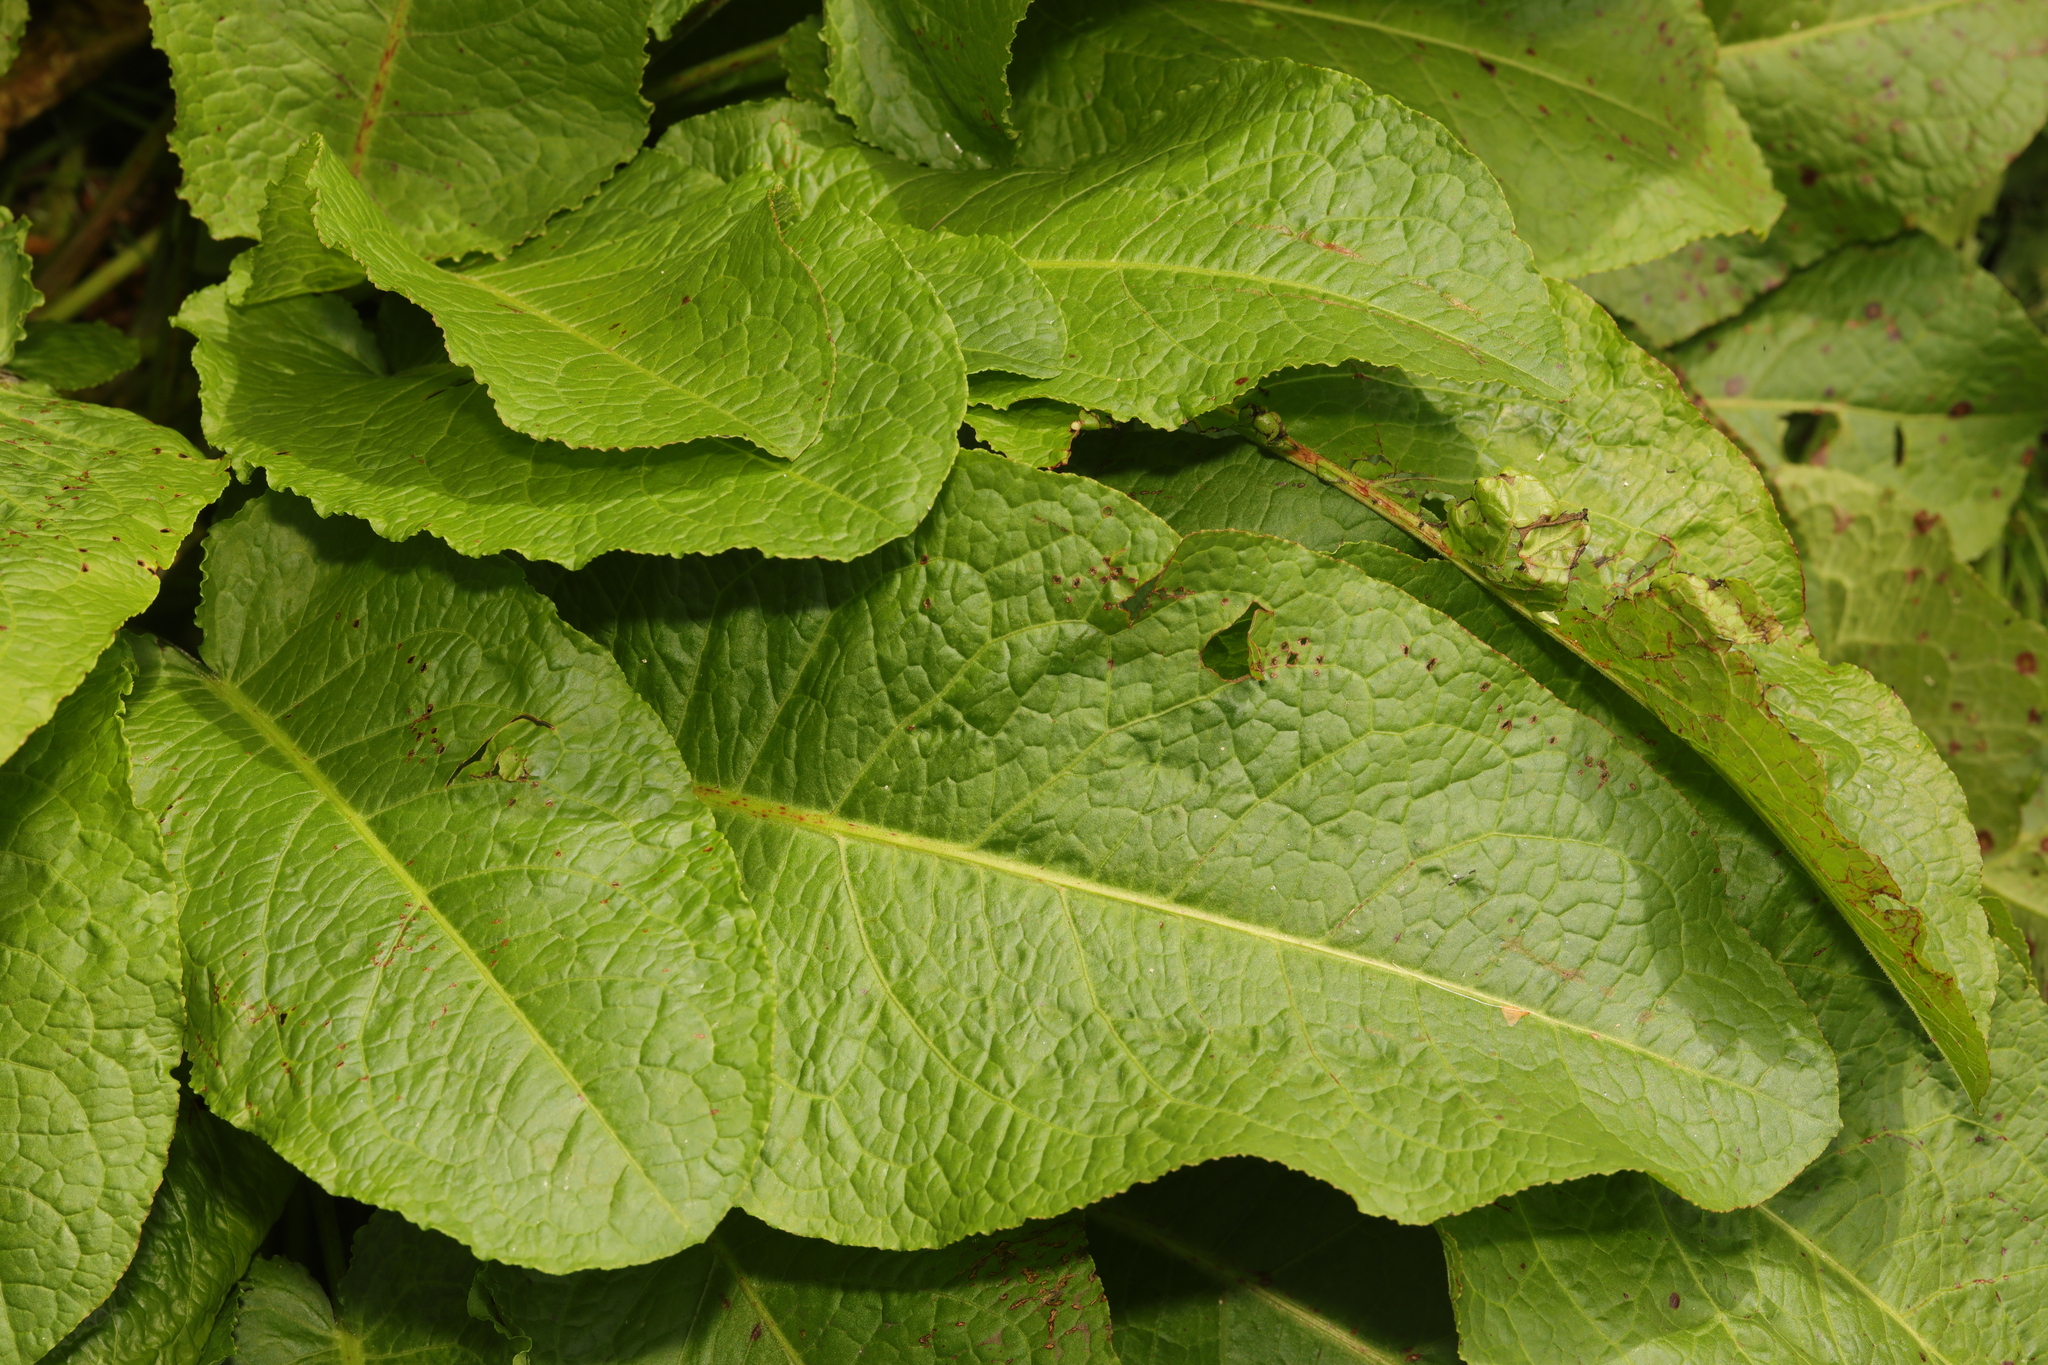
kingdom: Plantae
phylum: Tracheophyta
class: Magnoliopsida
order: Caryophyllales
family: Polygonaceae
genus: Rumex
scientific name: Rumex obtusifolius
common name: Bitter dock
